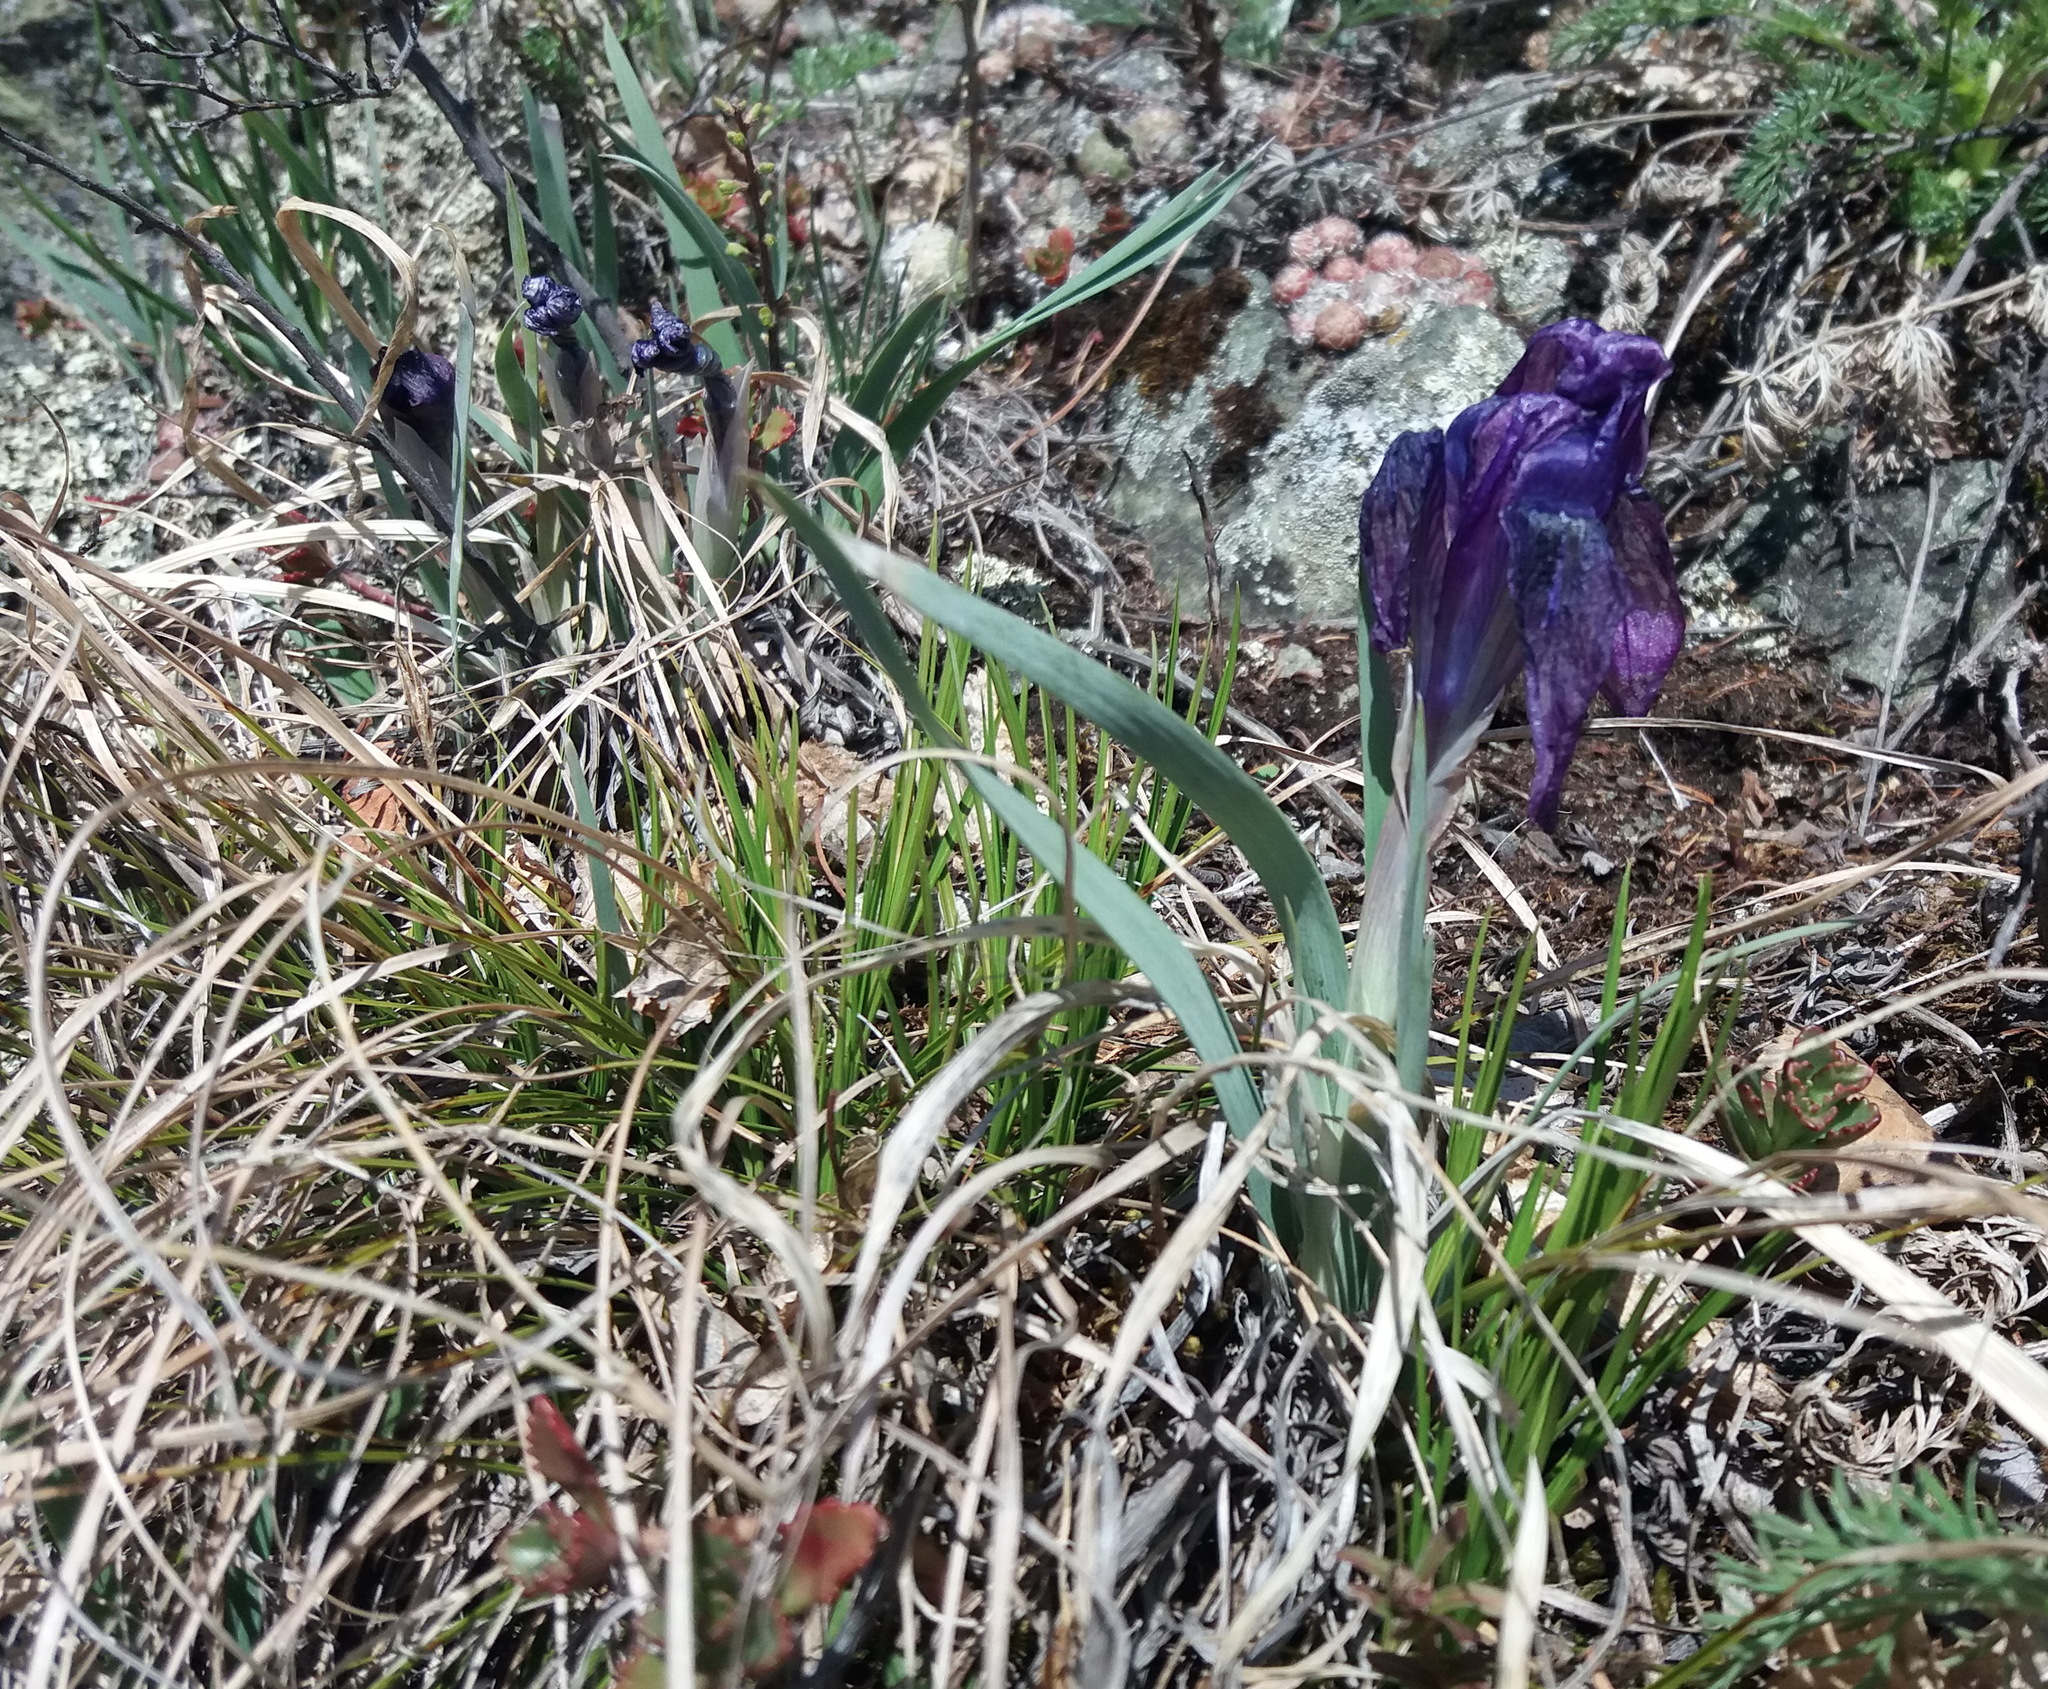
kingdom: Plantae
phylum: Tracheophyta
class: Liliopsida
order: Asparagales
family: Iridaceae
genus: Iris
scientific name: Iris tigridia
